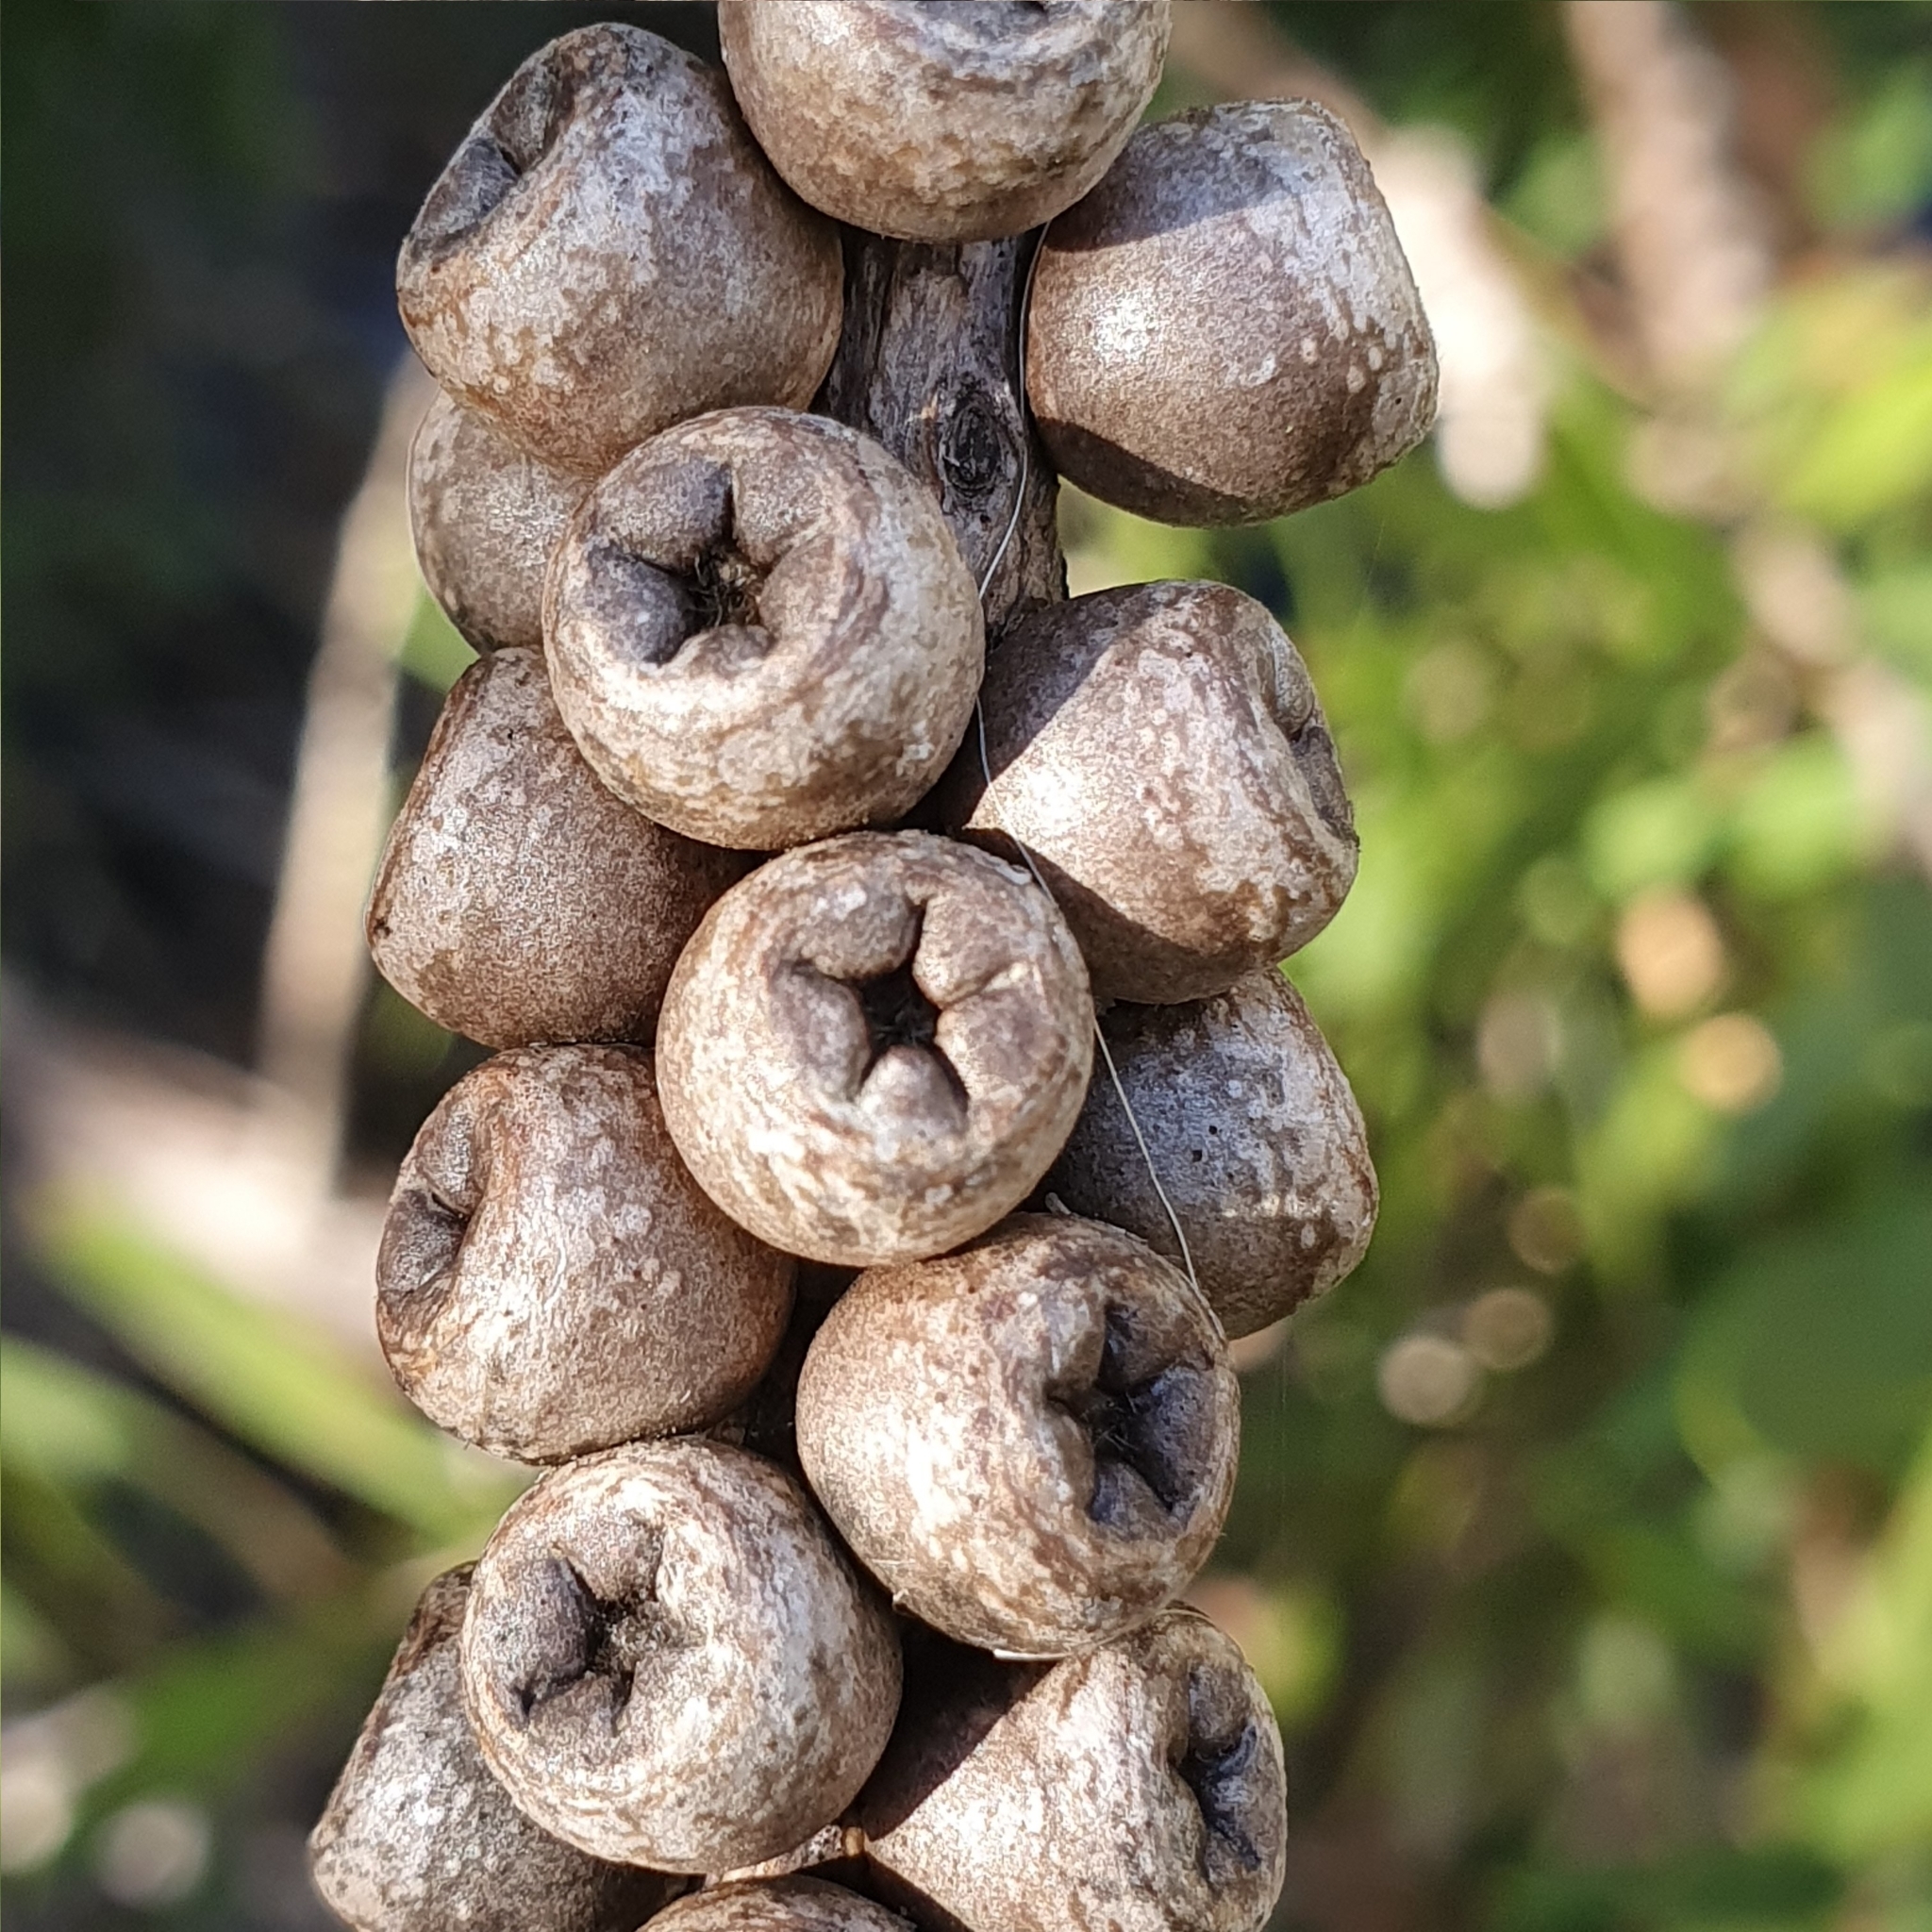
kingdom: Plantae
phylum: Tracheophyta
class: Magnoliopsida
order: Myrtales
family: Myrtaceae
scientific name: Myrtaceae
